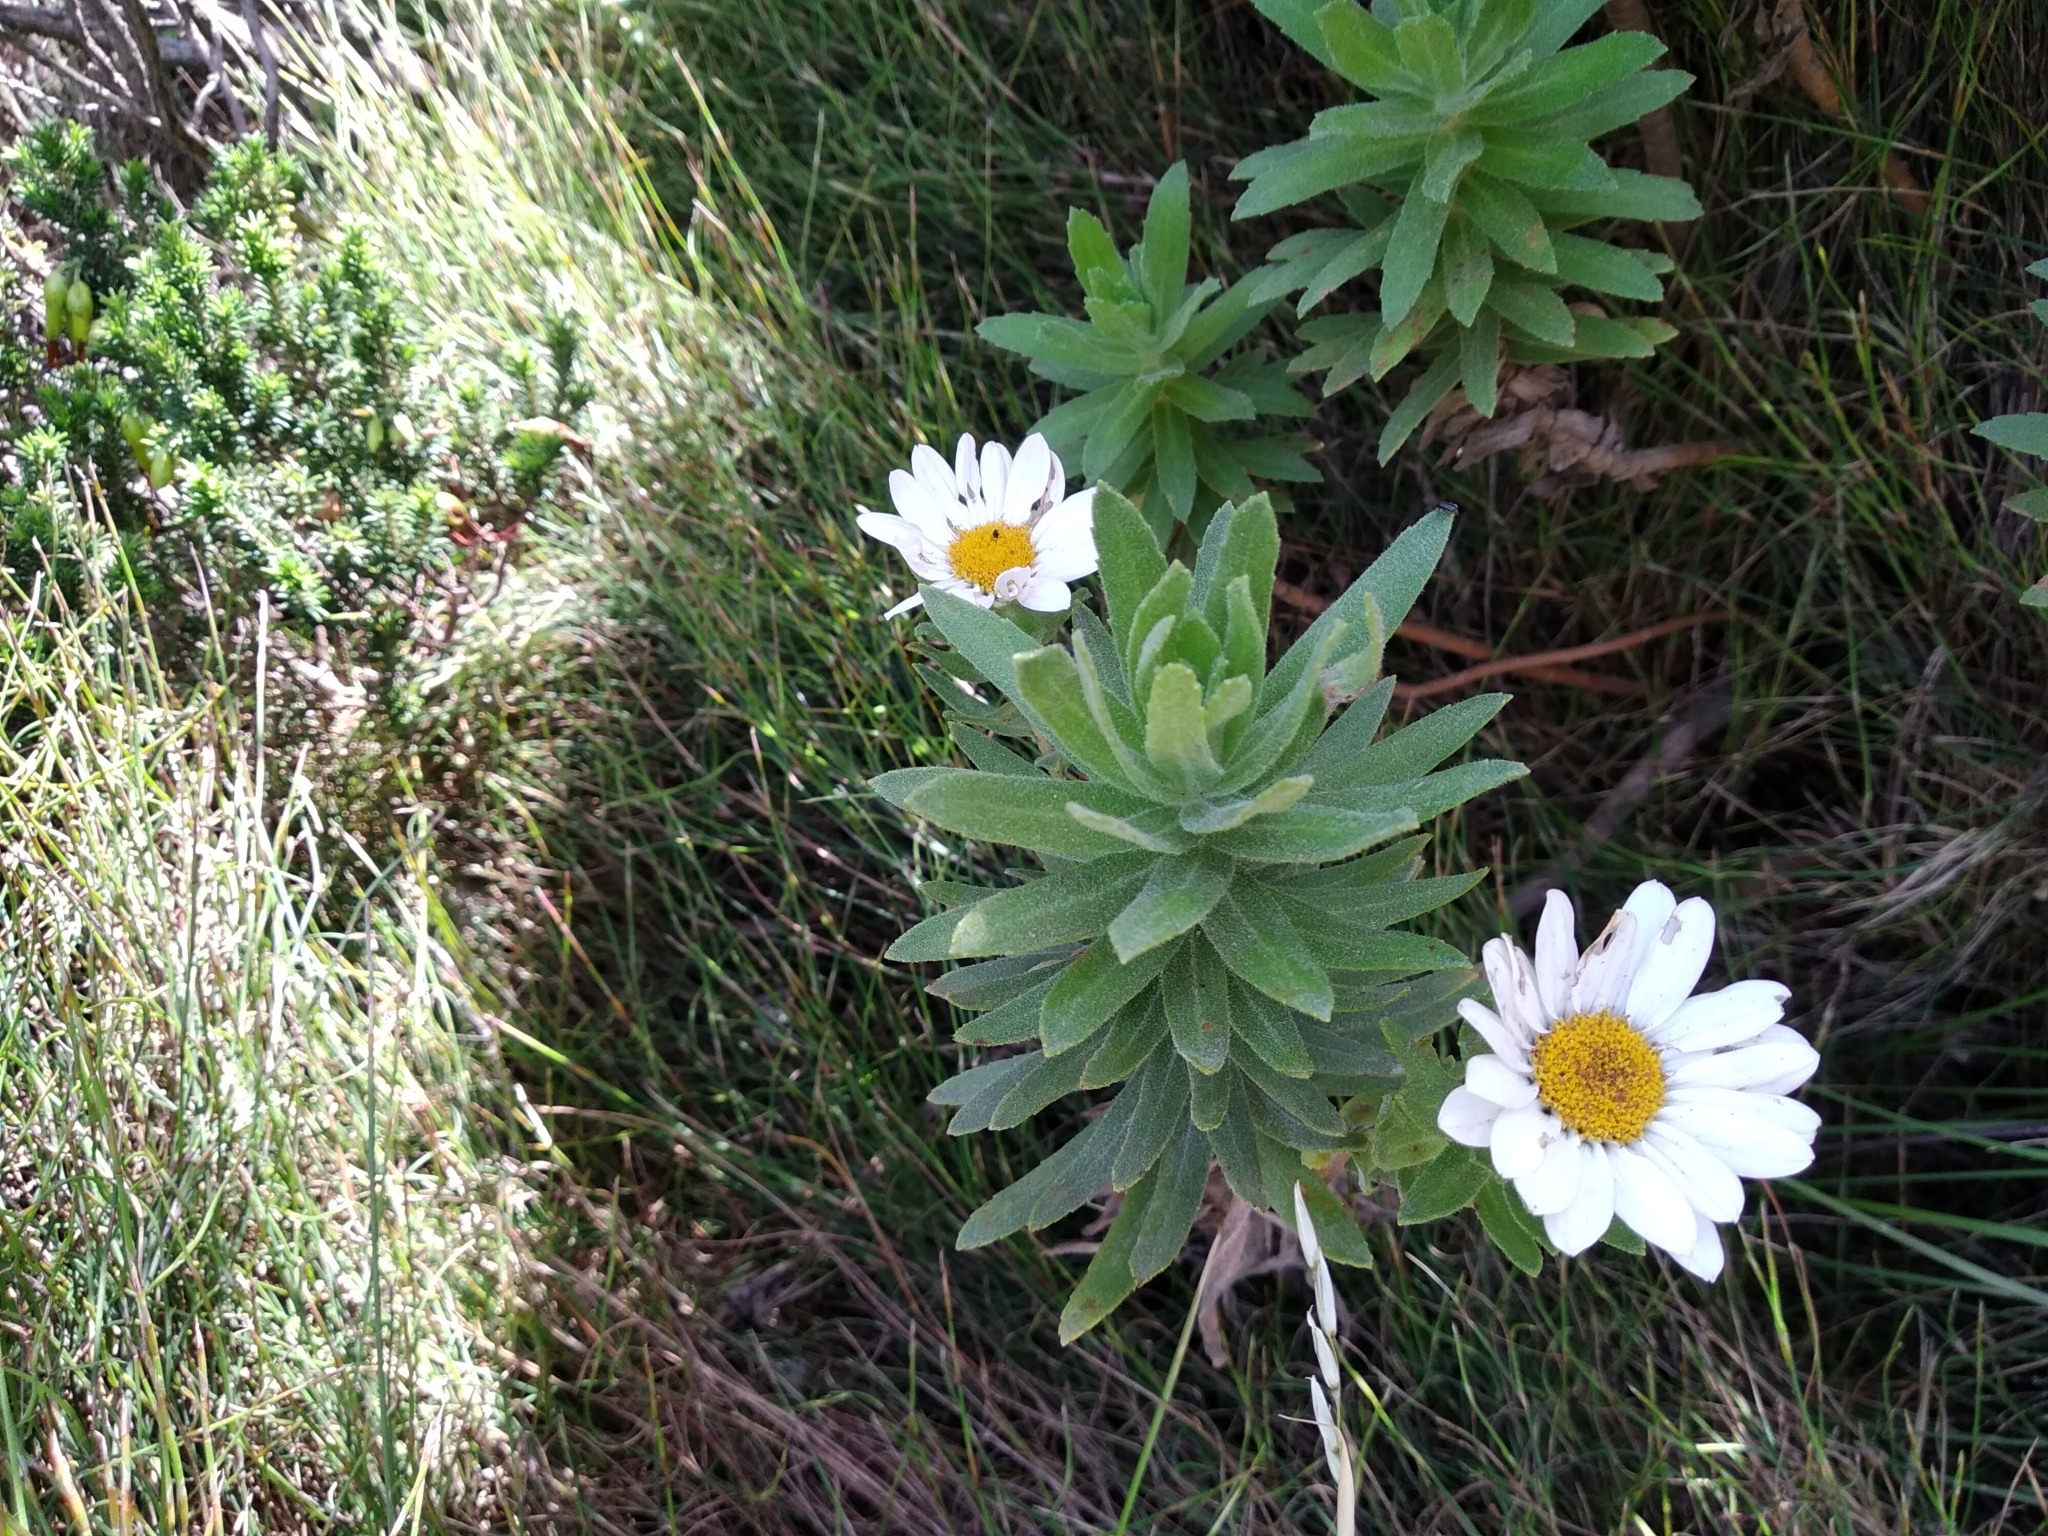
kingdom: Plantae
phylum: Tracheophyta
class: Magnoliopsida
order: Asterales
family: Asteraceae
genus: Osmitopsis
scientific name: Osmitopsis asteriscoides
